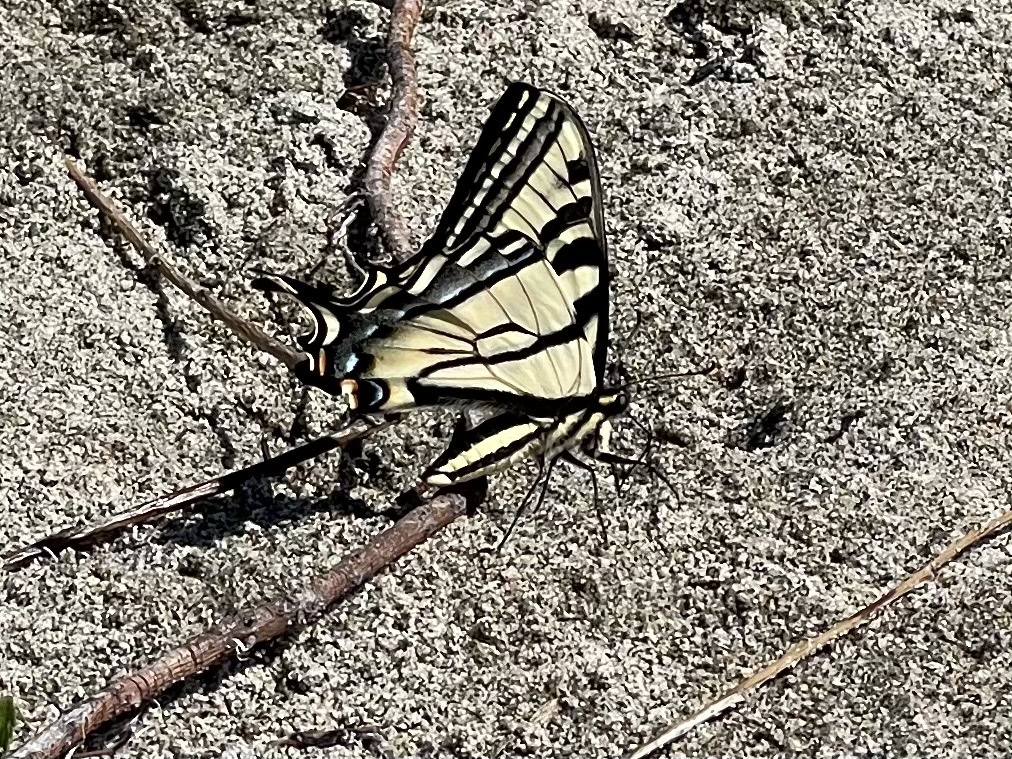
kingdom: Animalia
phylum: Arthropoda
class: Insecta
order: Lepidoptera
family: Papilionidae
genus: Papilio
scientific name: Papilio rutulus
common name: Western tiger swallowtail
